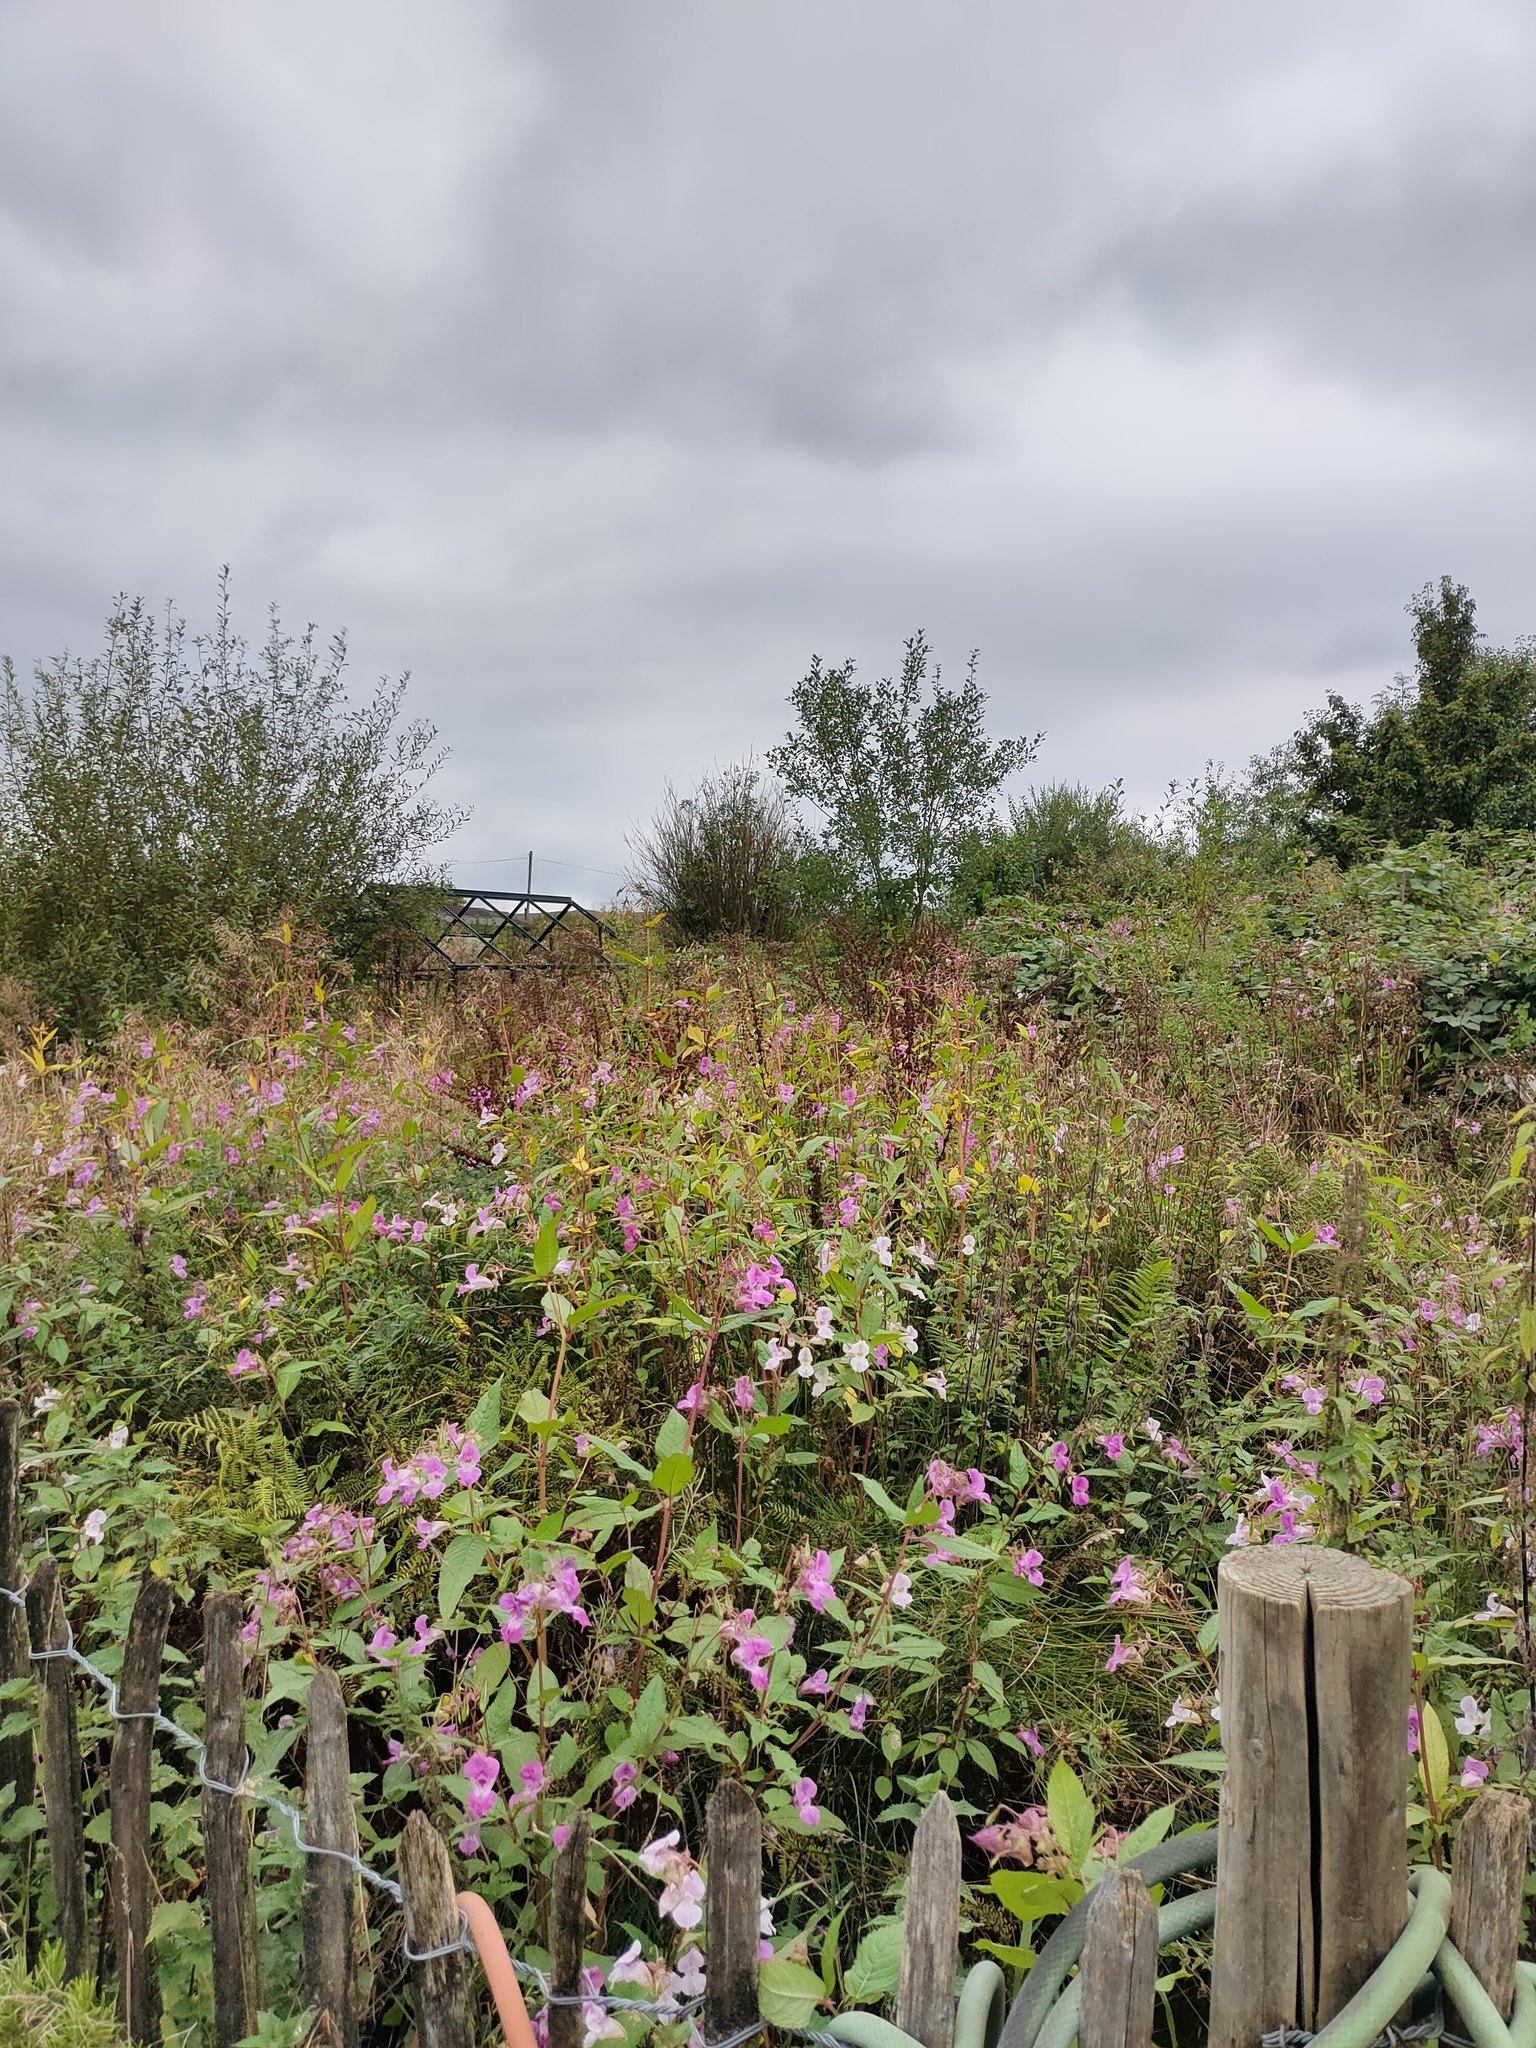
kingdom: Plantae
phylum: Tracheophyta
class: Magnoliopsida
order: Ericales
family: Balsaminaceae
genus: Impatiens
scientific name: Impatiens glandulifera
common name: Himalayan balsam
